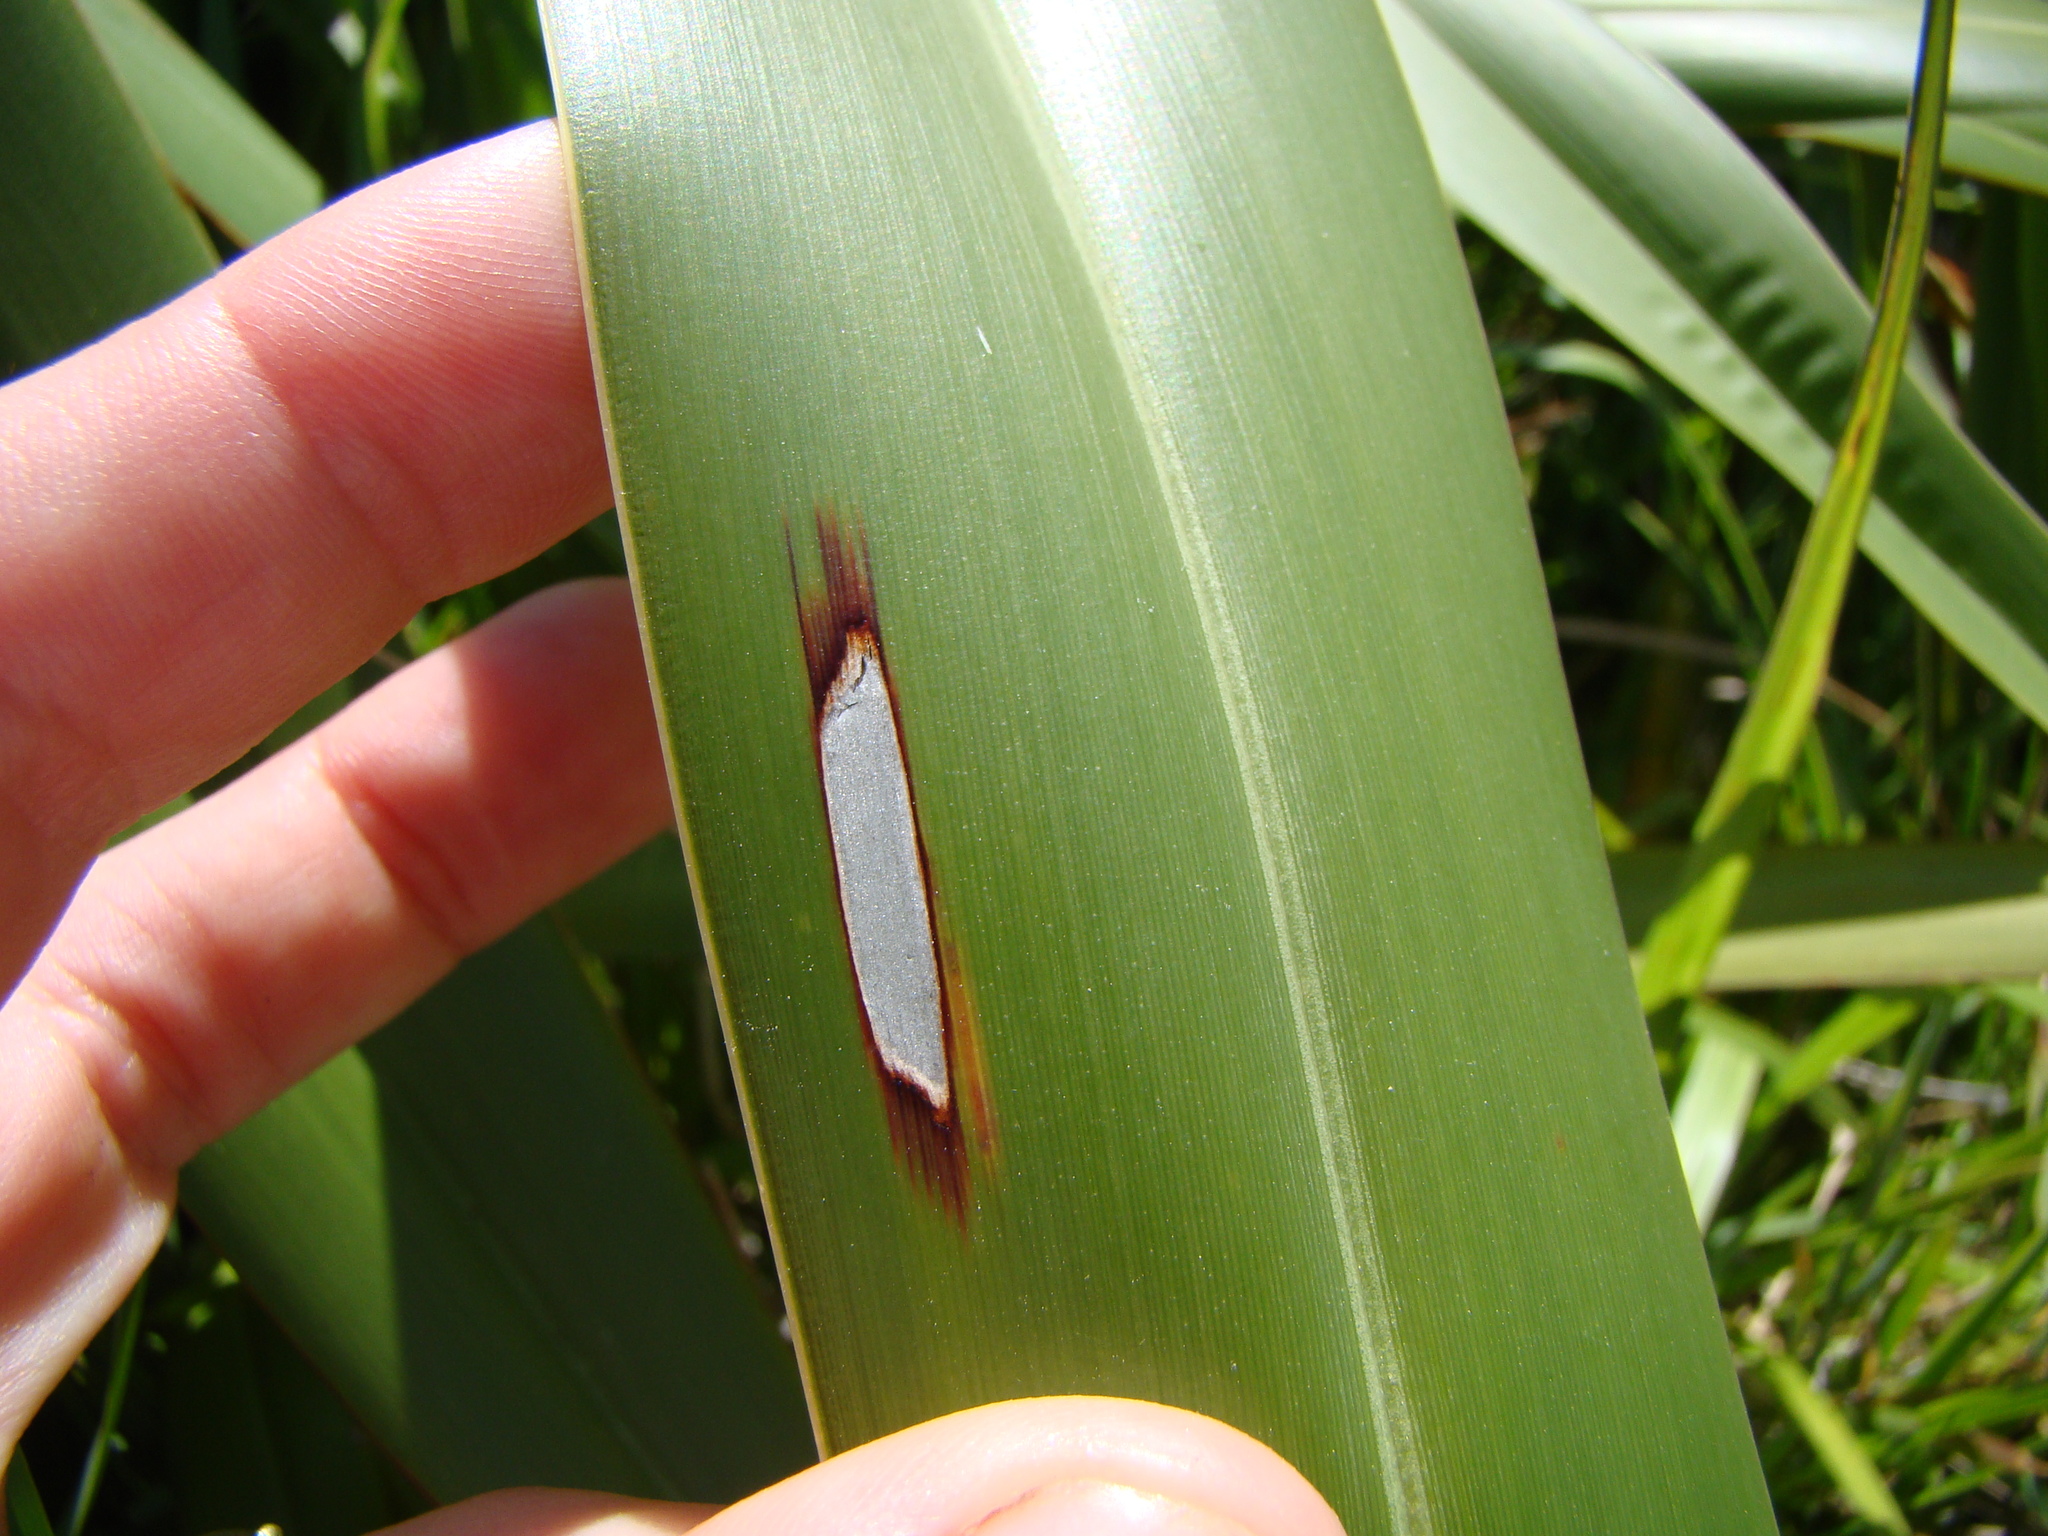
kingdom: Animalia
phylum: Arthropoda
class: Insecta
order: Lepidoptera
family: Geometridae
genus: Orthoclydon
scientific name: Orthoclydon praefectata
